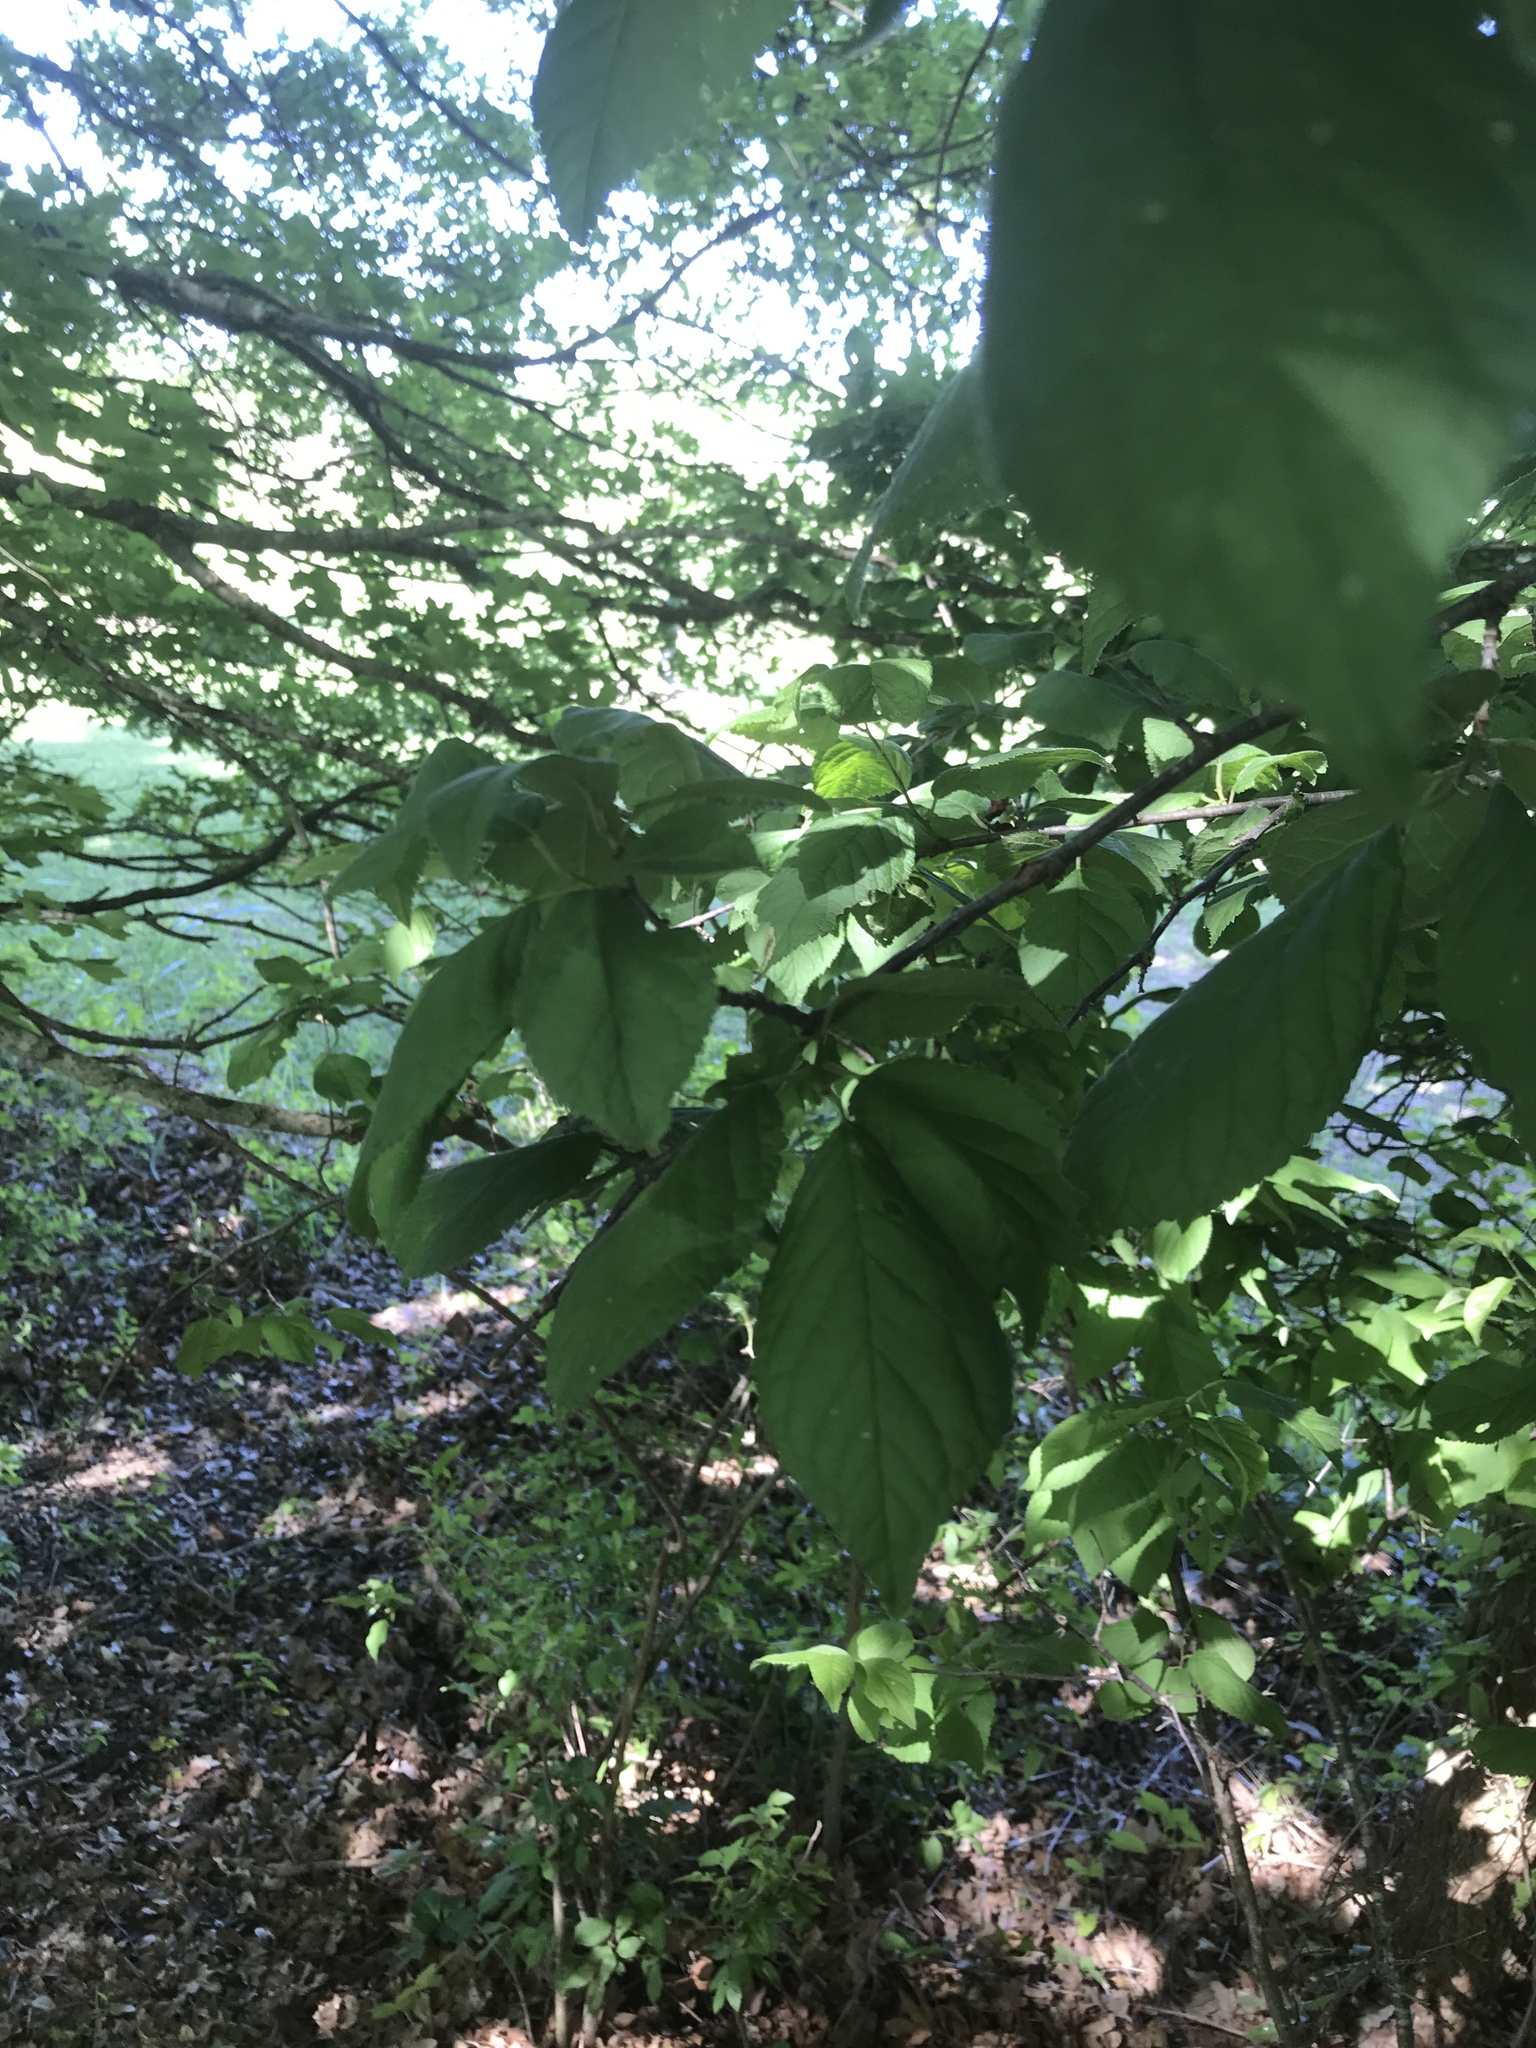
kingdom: Plantae
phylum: Tracheophyta
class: Magnoliopsida
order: Rosales
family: Rosaceae
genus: Prunus
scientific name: Prunus mexicana
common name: Mexican plum
